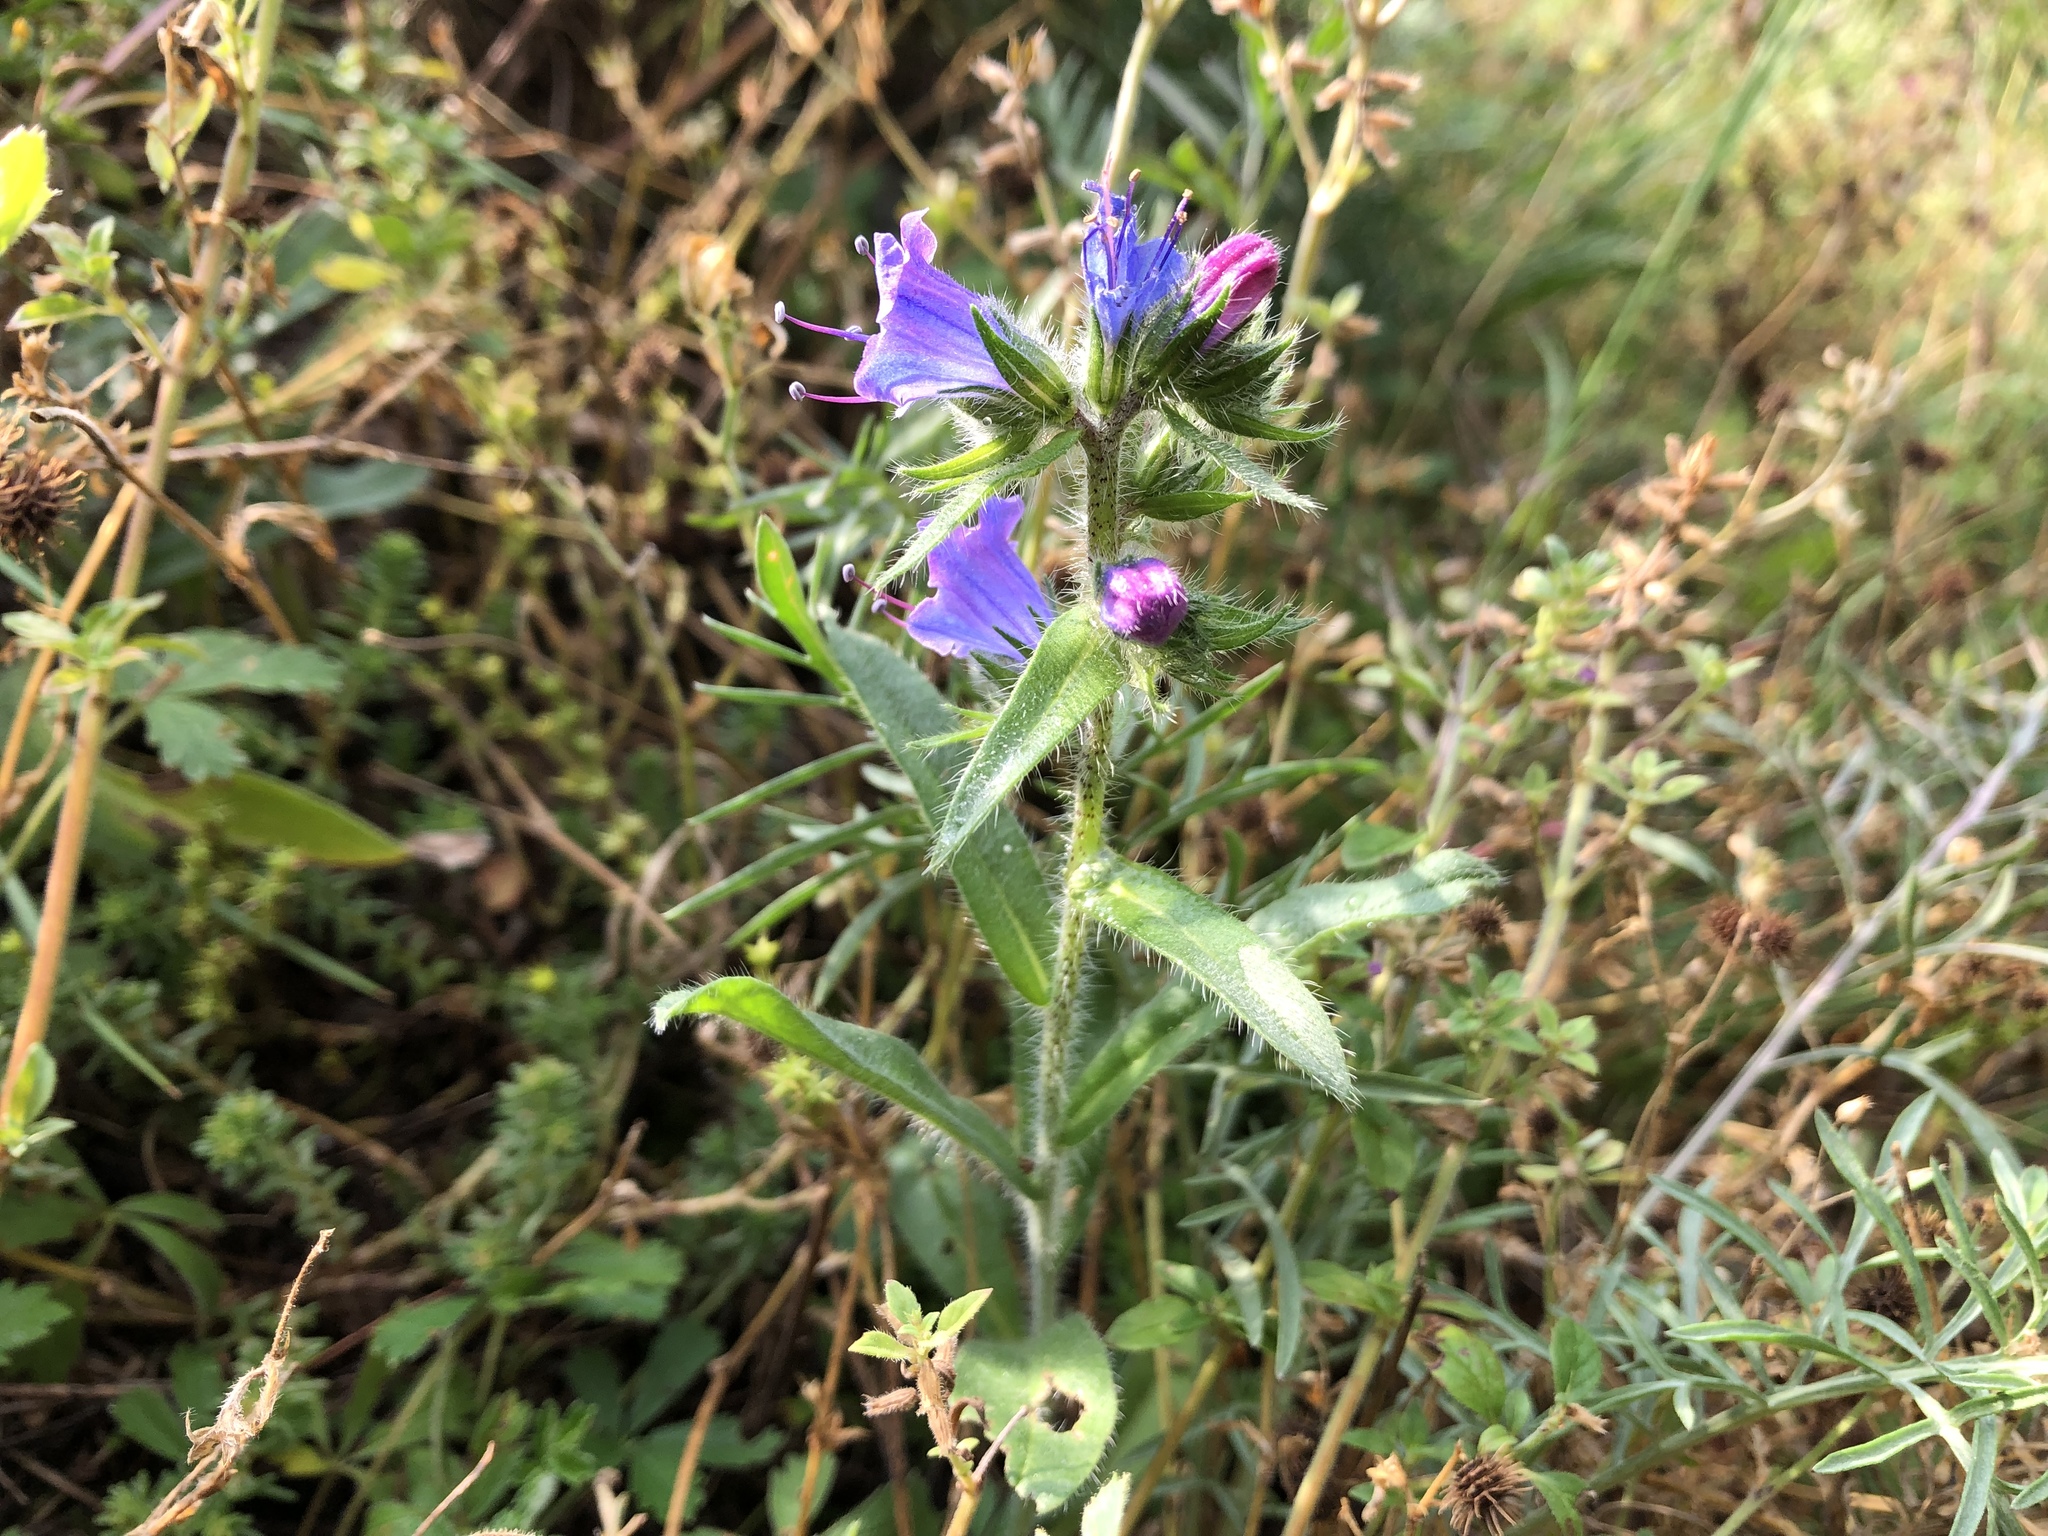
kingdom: Plantae
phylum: Tracheophyta
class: Magnoliopsida
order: Boraginales
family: Boraginaceae
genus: Echium
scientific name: Echium vulgare
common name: Common viper's bugloss
